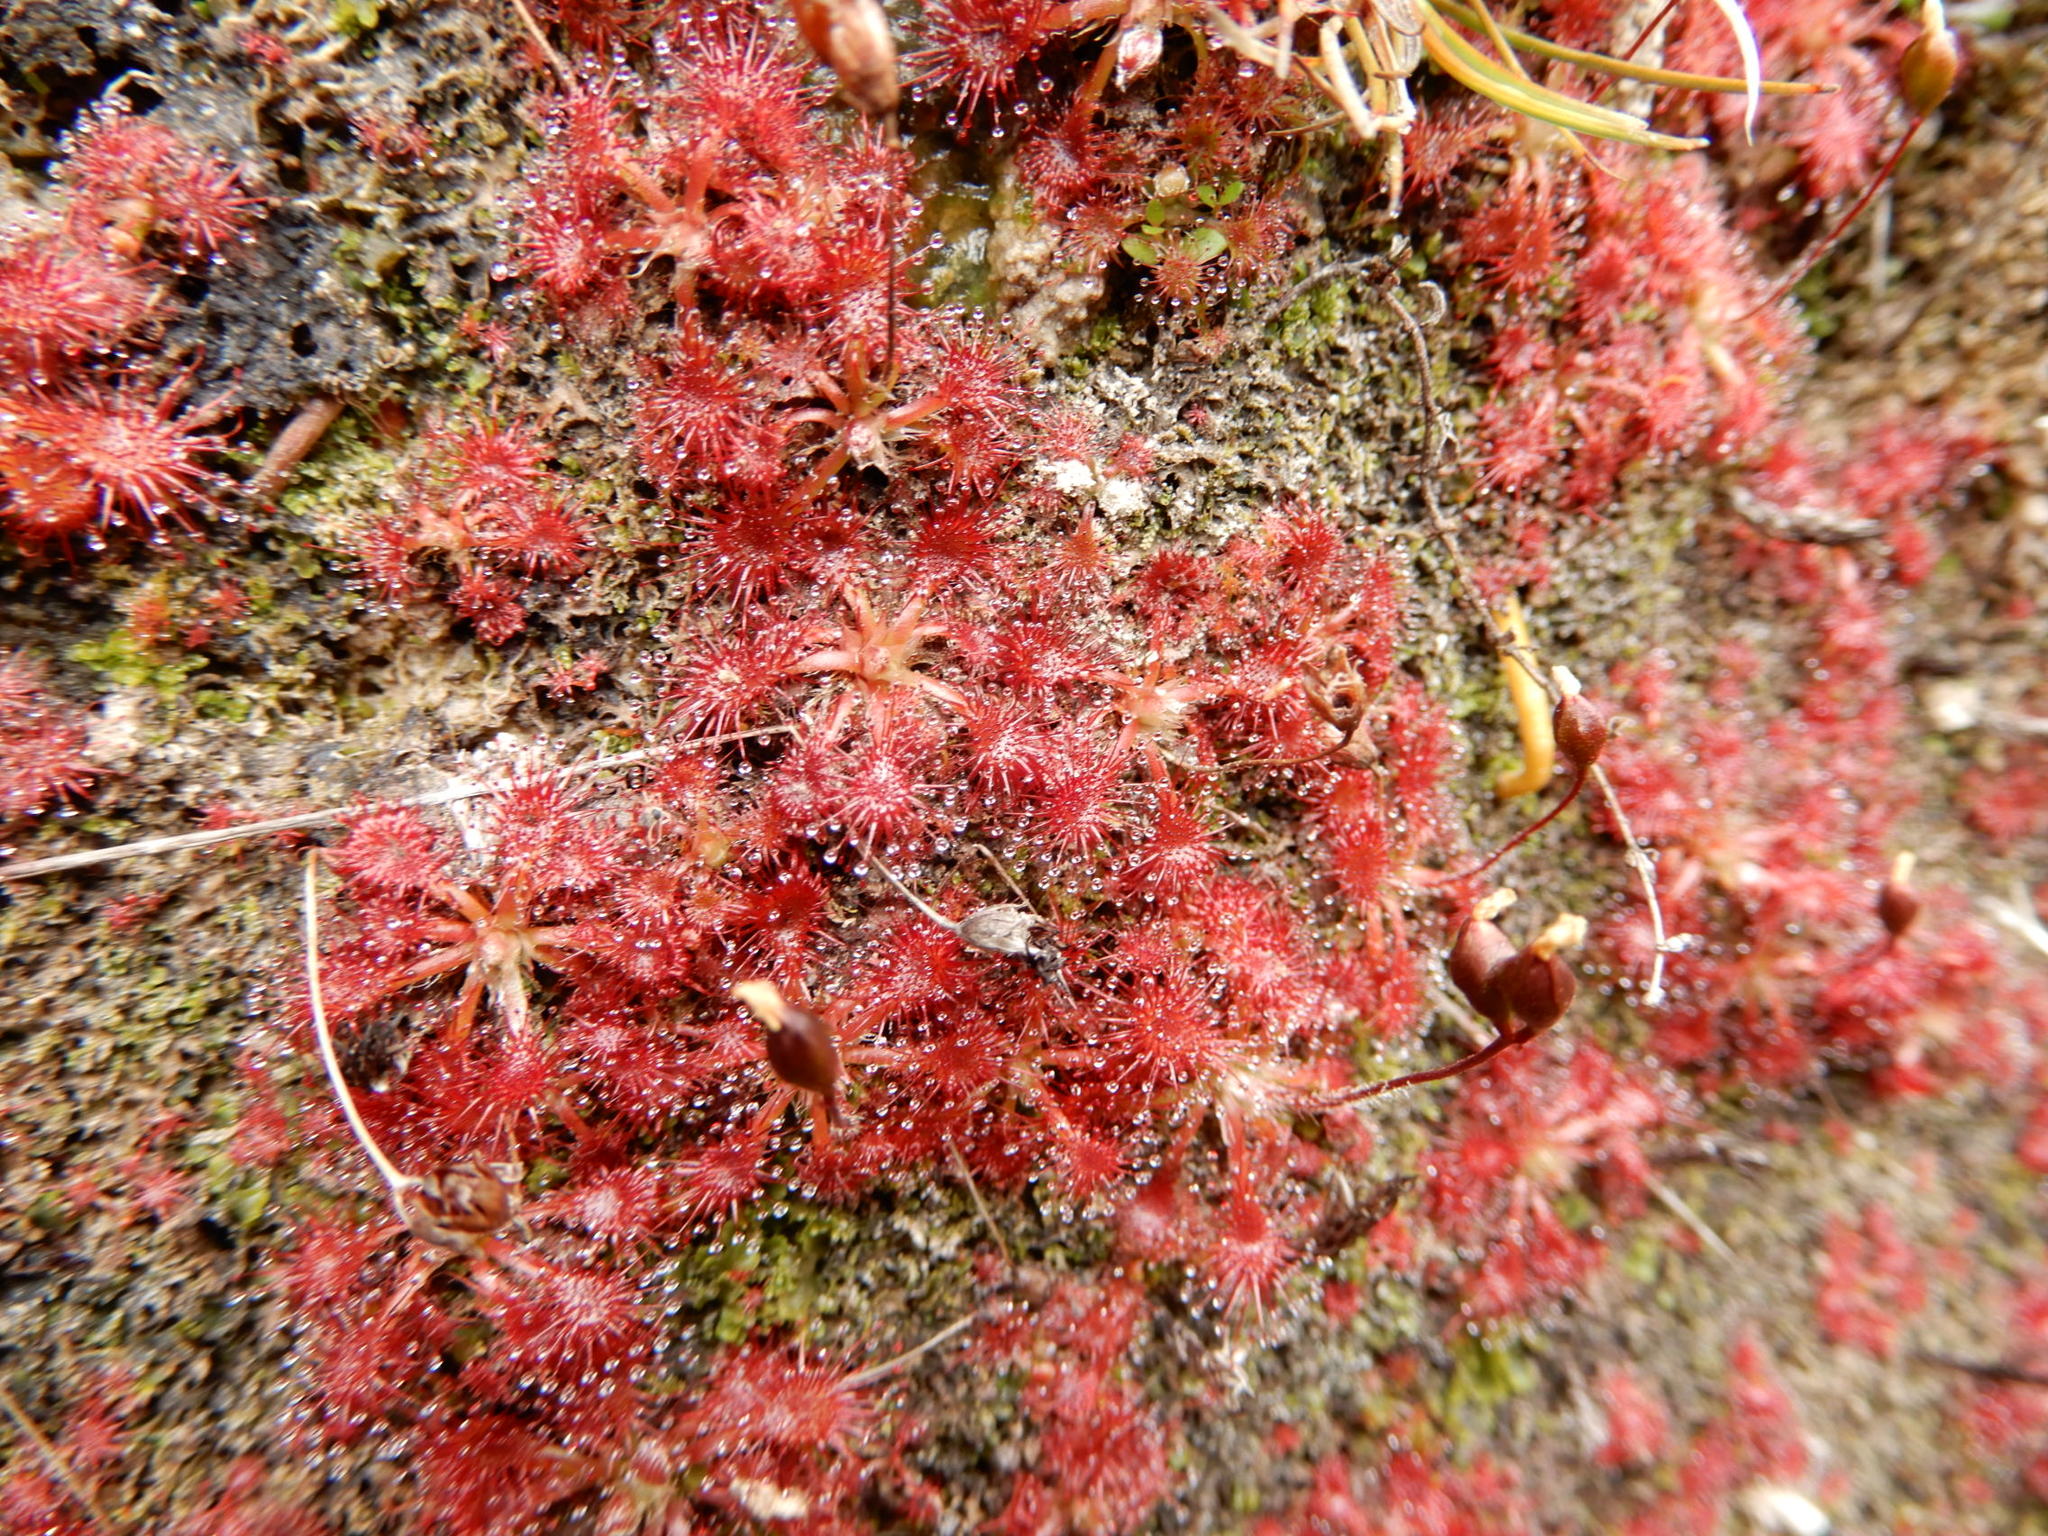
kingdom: Plantae
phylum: Tracheophyta
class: Magnoliopsida
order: Caryophyllales
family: Droseraceae
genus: Drosera
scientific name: Drosera spatulata
